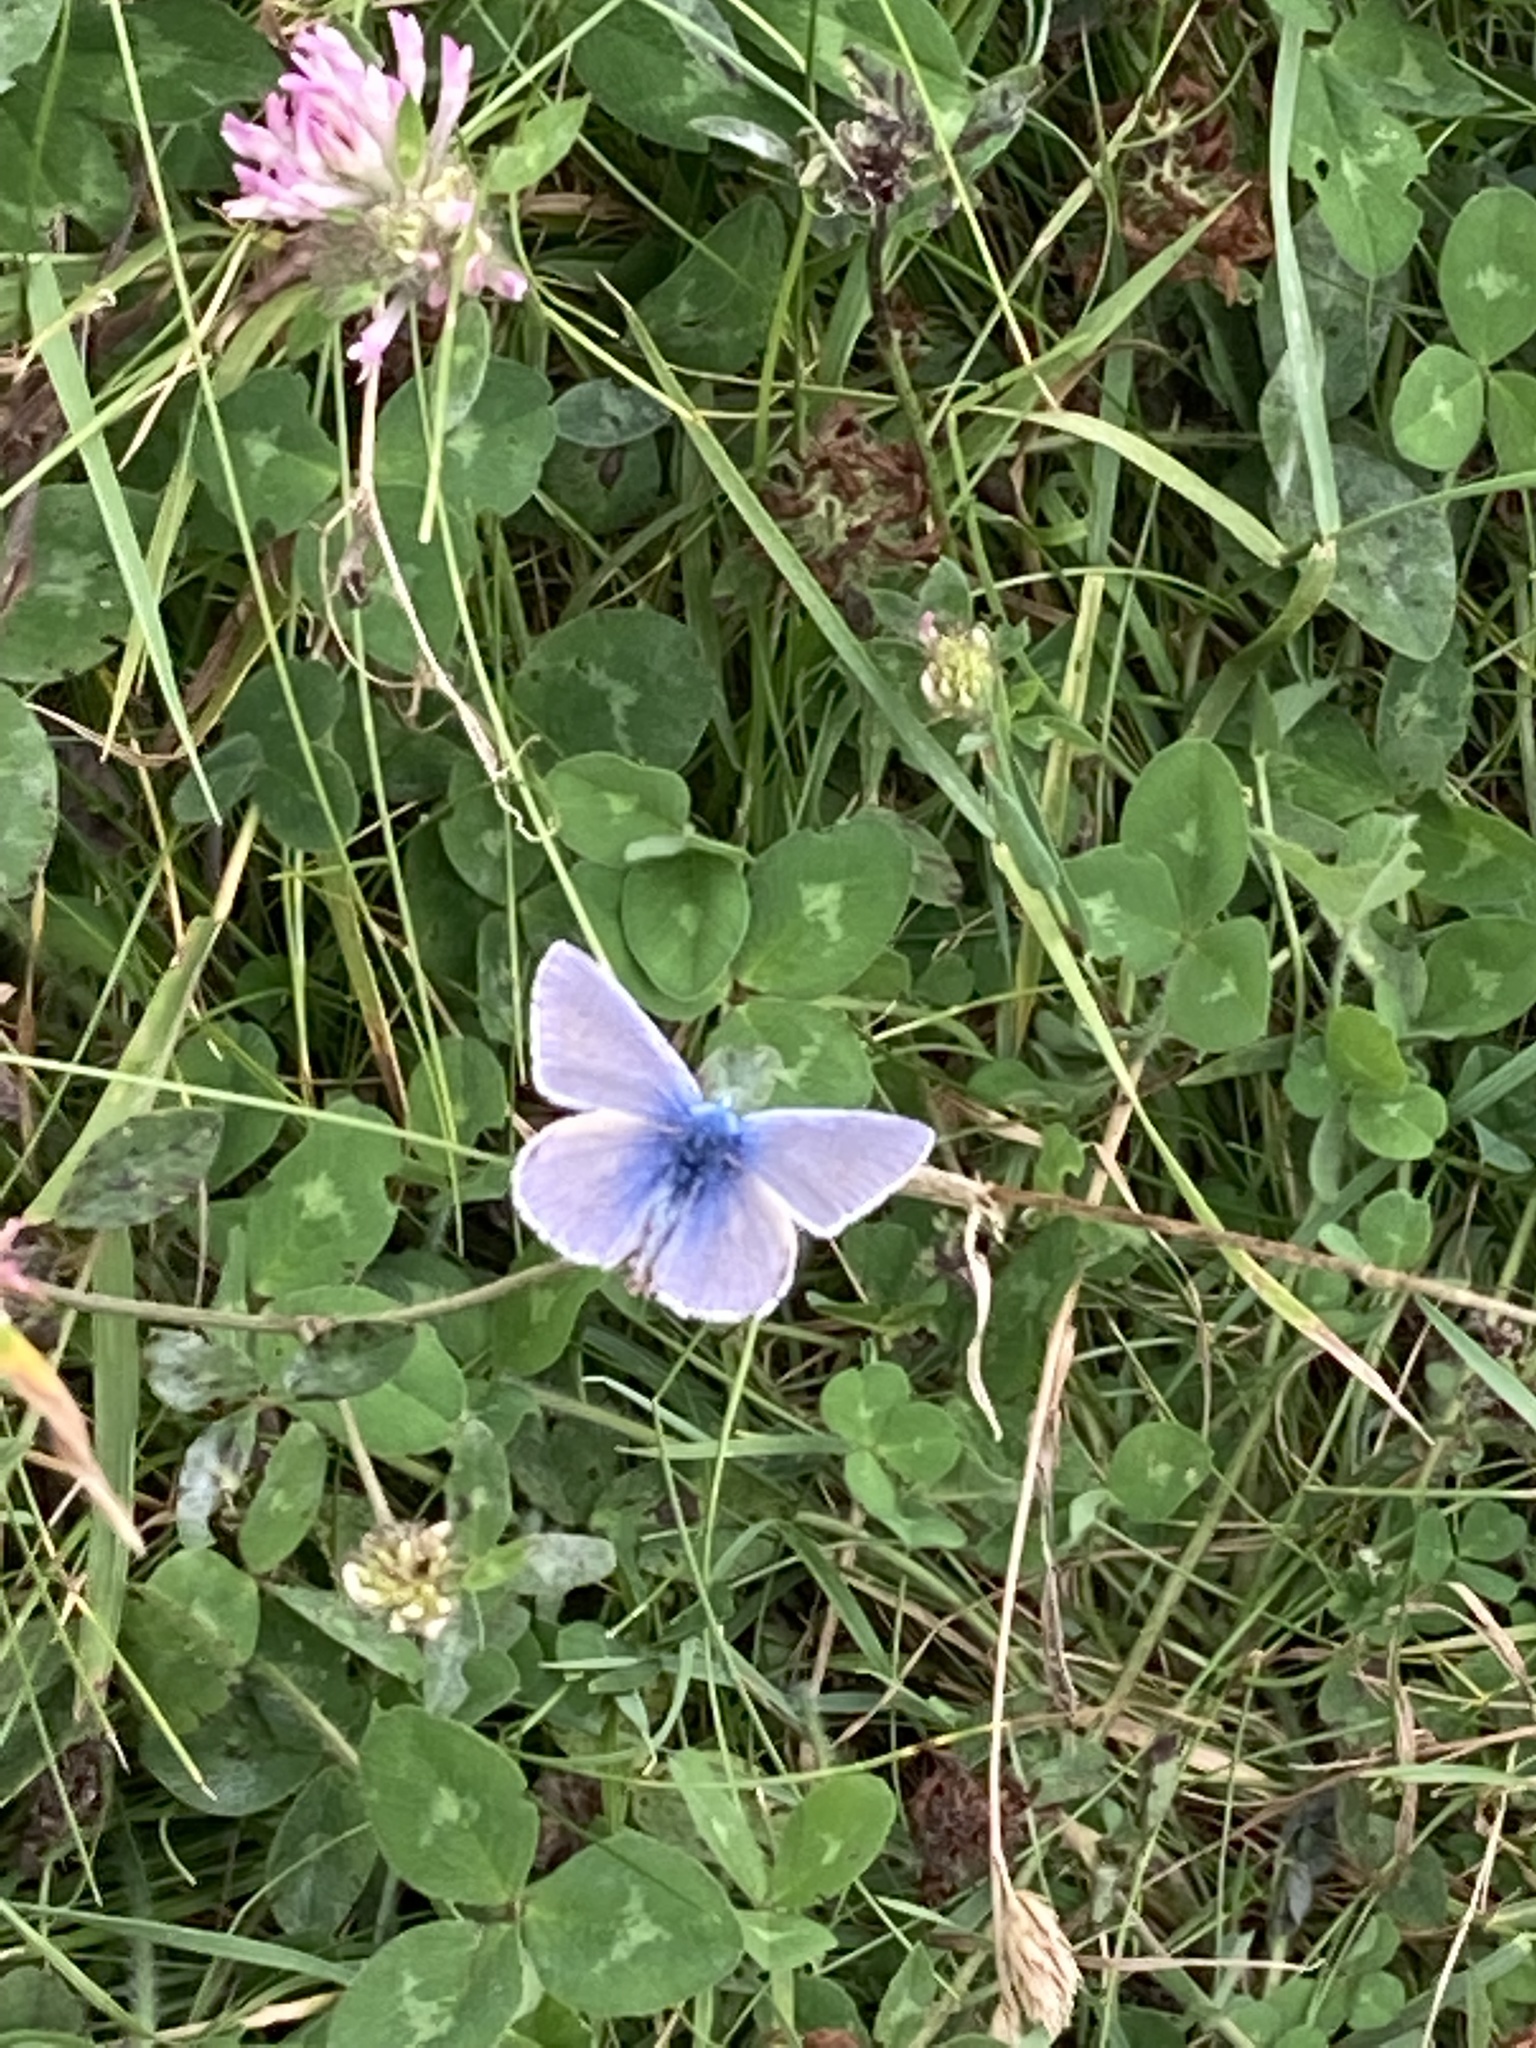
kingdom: Animalia
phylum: Arthropoda
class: Insecta
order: Lepidoptera
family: Lycaenidae
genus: Polyommatus
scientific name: Polyommatus icarus
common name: Common blue
